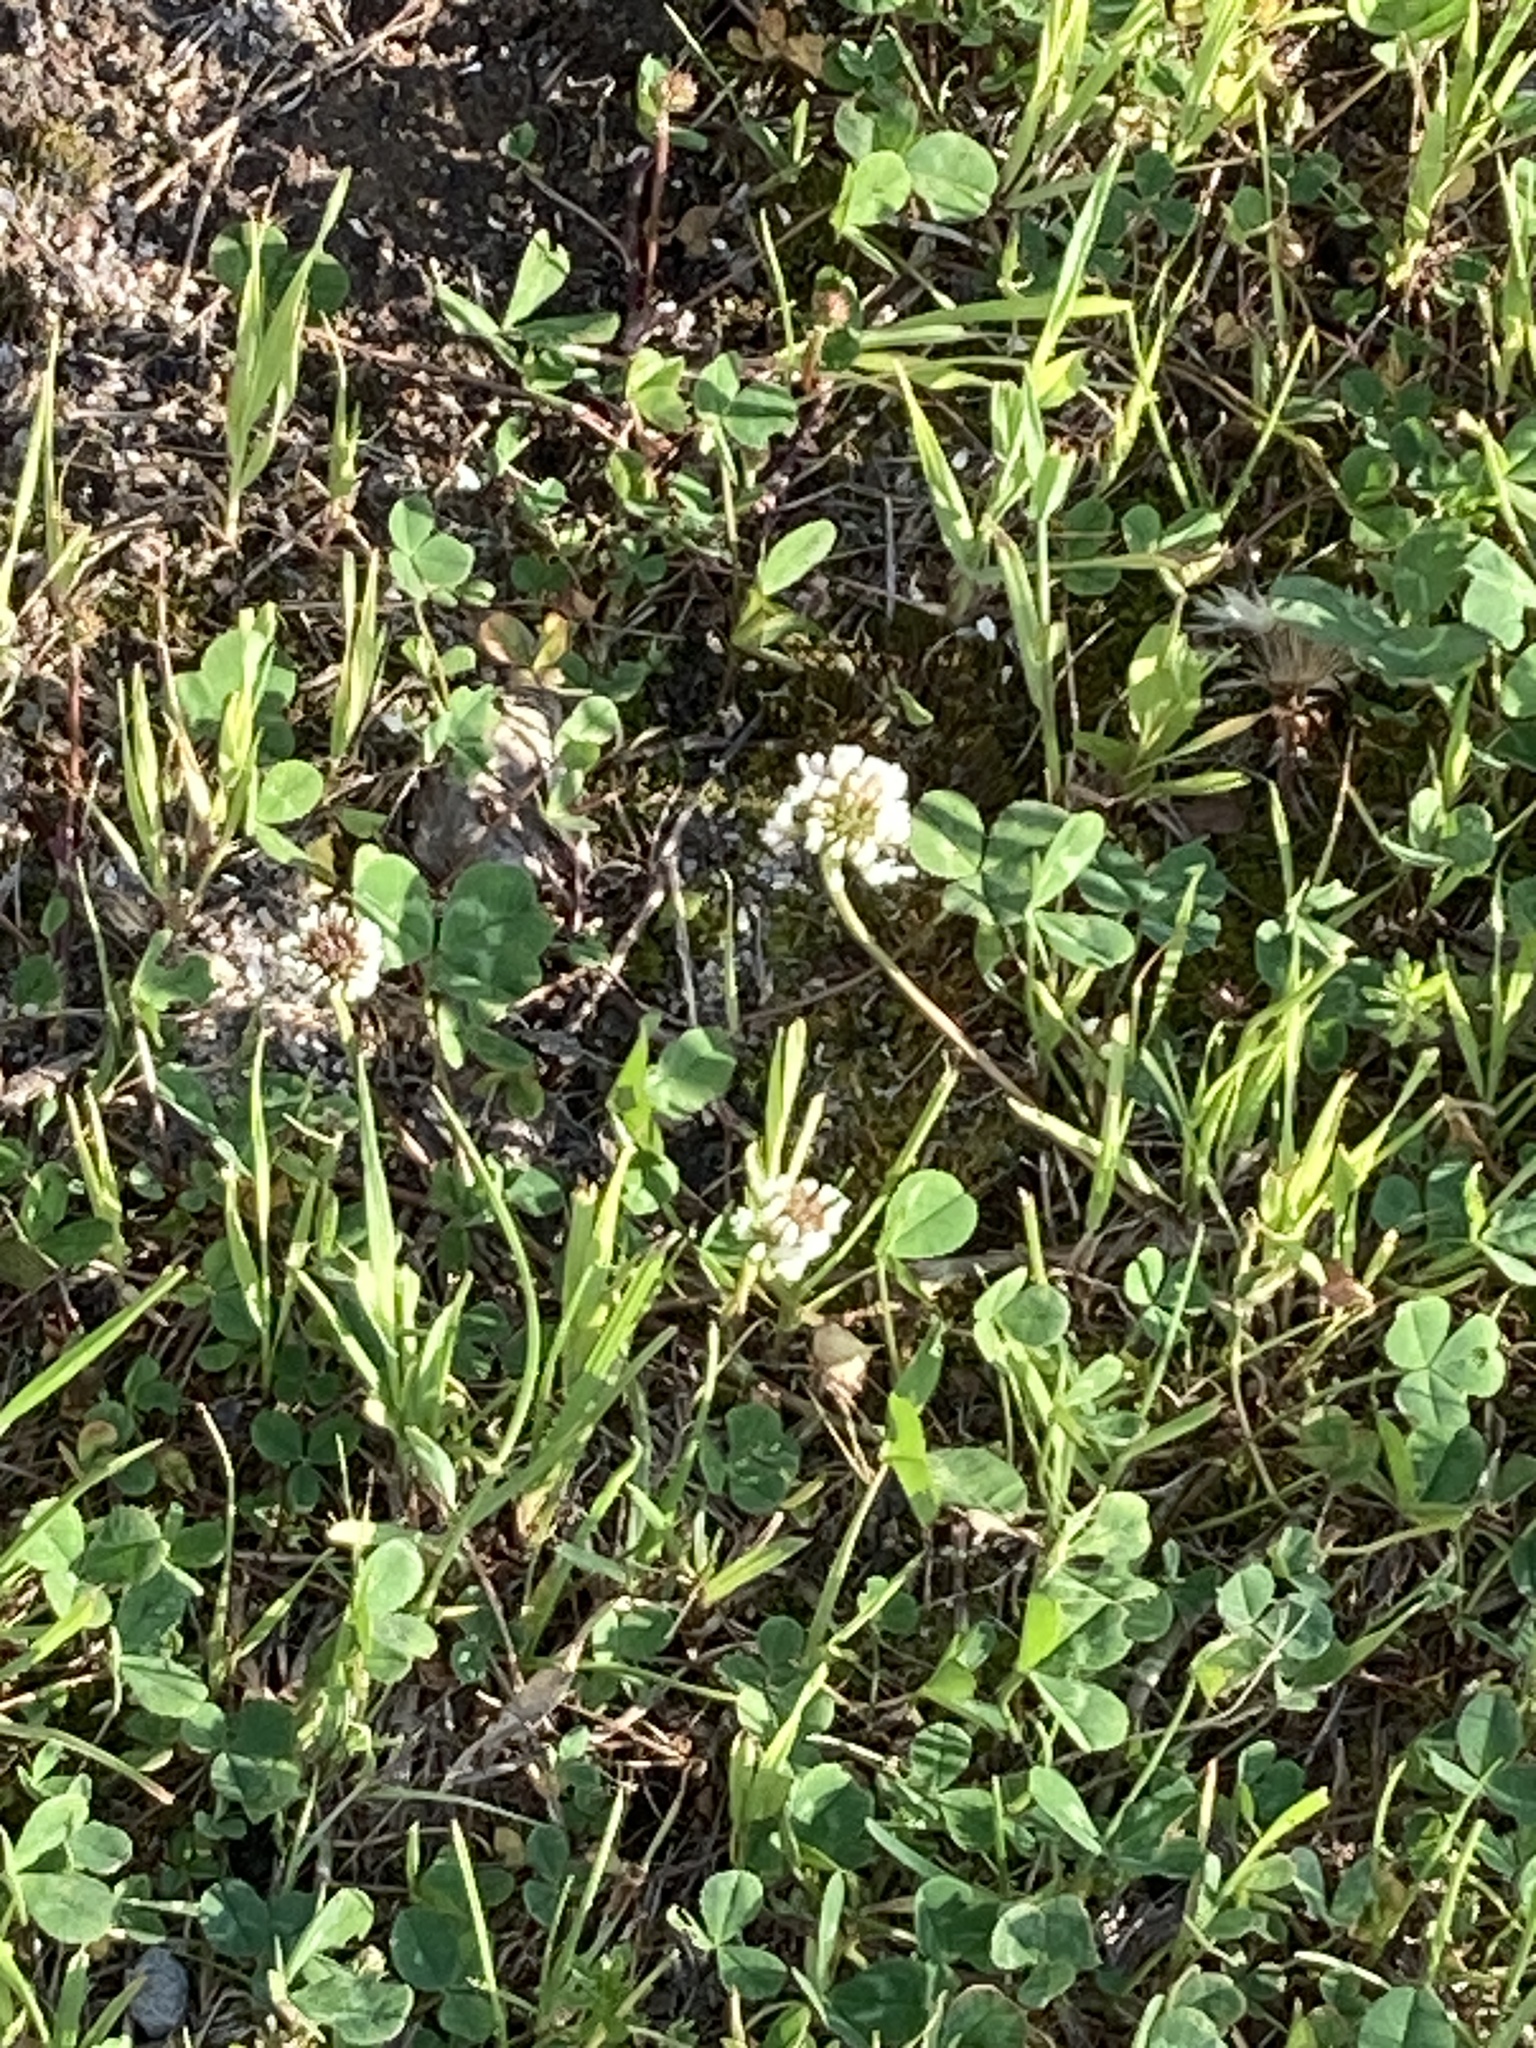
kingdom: Plantae
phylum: Tracheophyta
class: Magnoliopsida
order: Fabales
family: Fabaceae
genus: Trifolium
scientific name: Trifolium repens
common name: White clover
